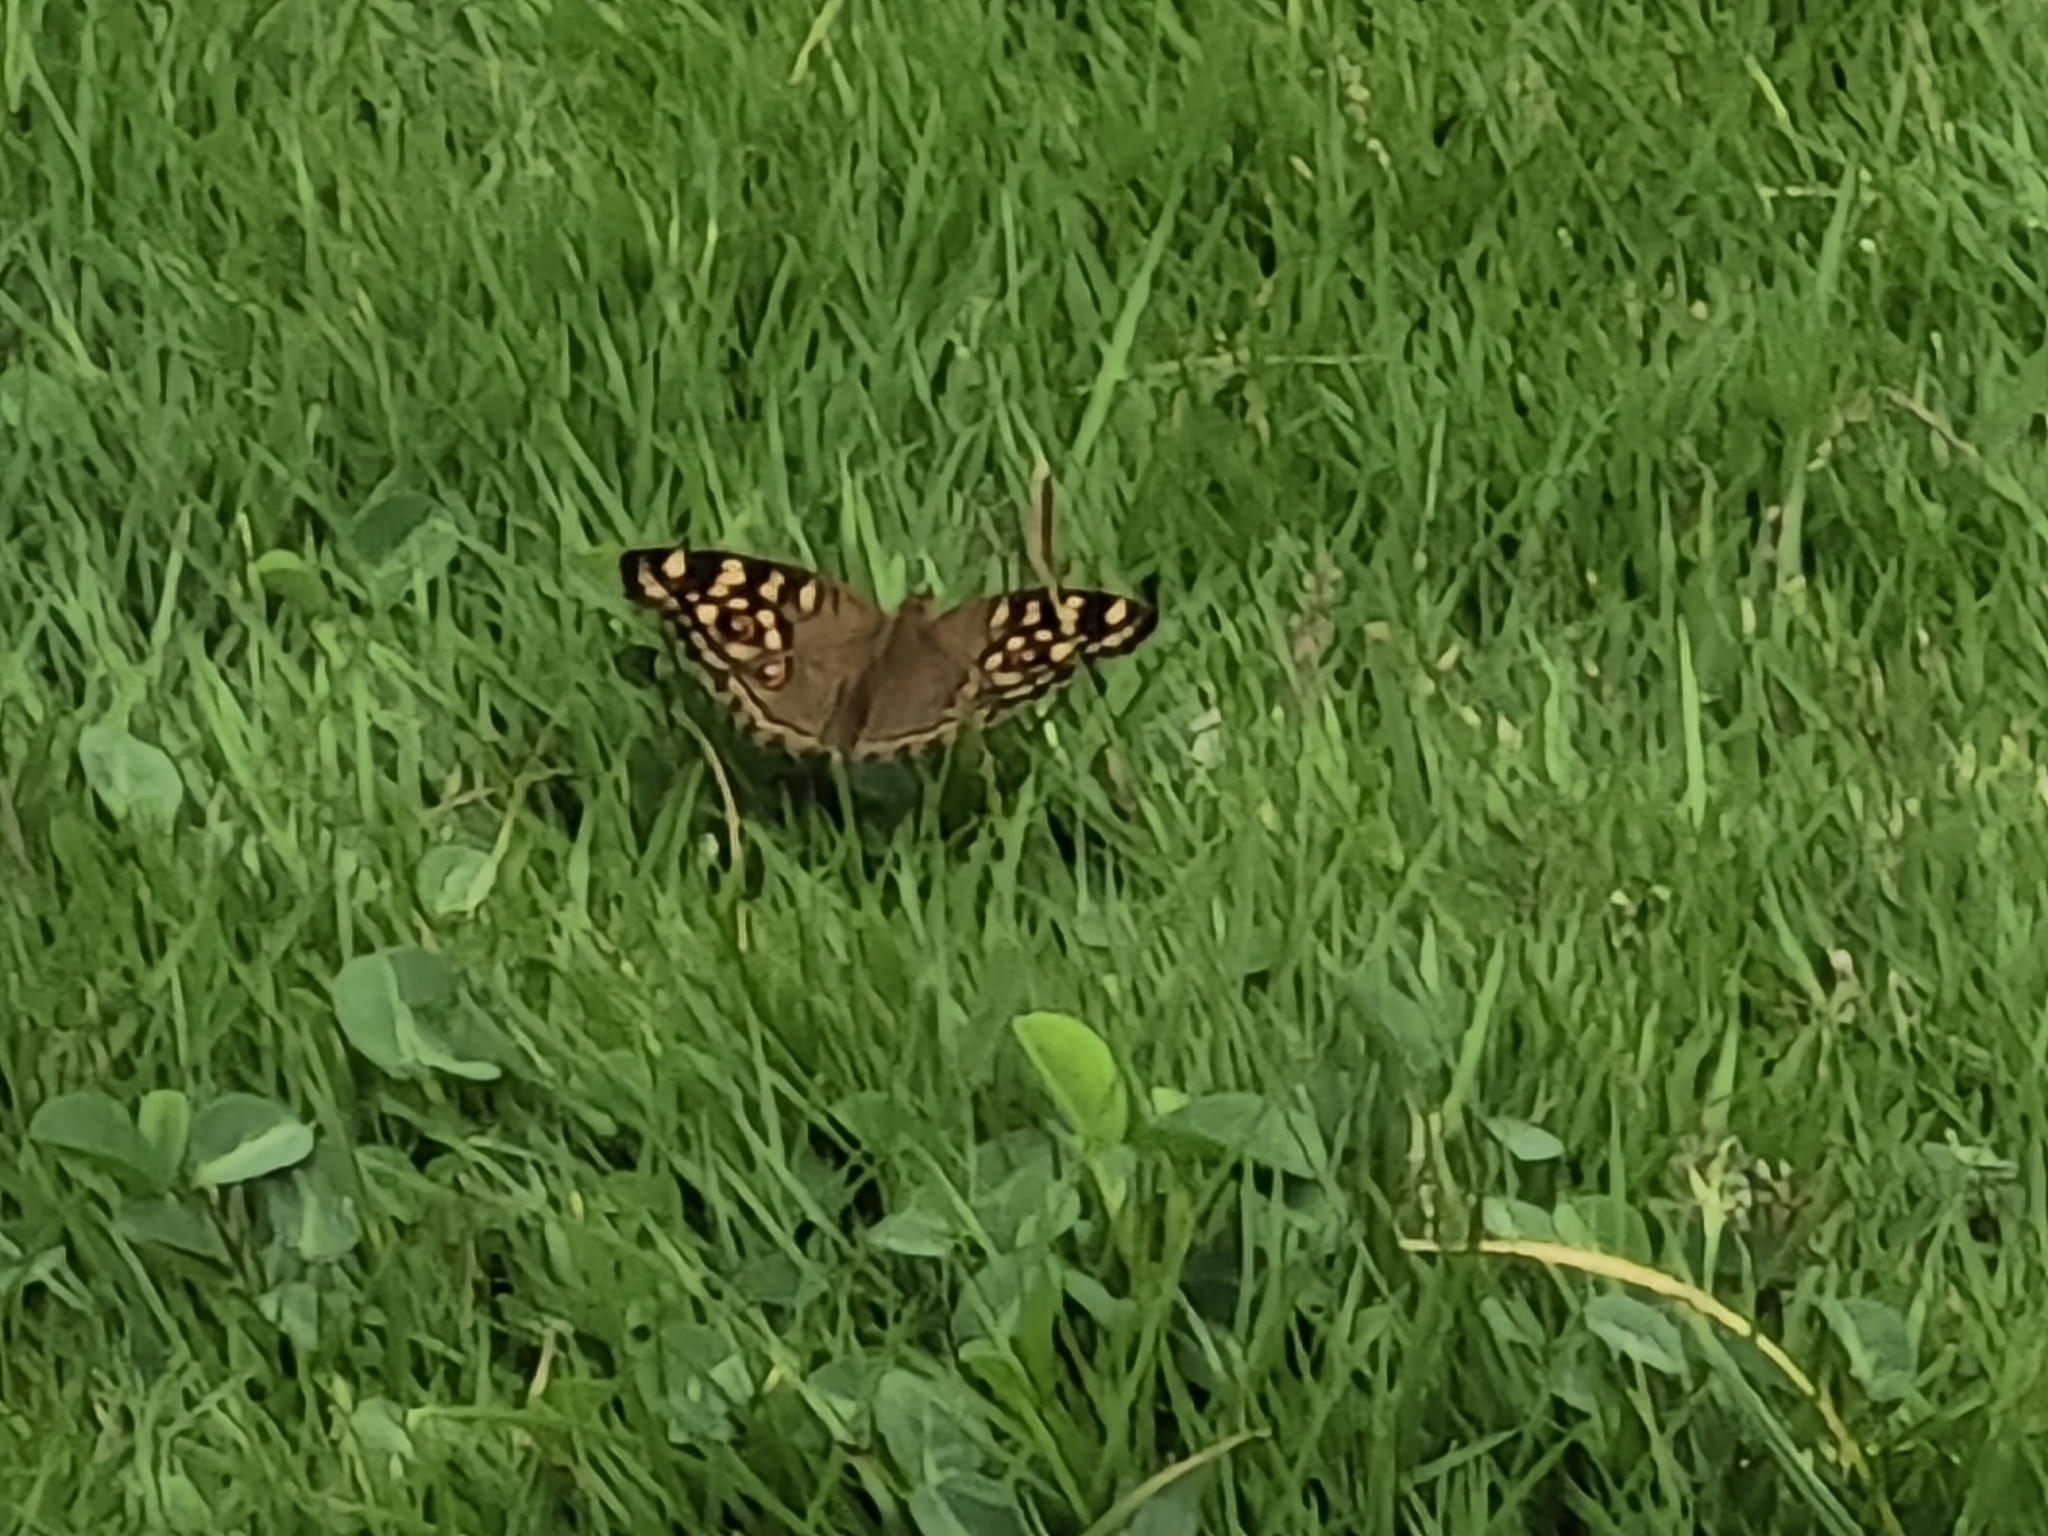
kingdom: Animalia
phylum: Arthropoda
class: Insecta
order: Lepidoptera
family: Nymphalidae
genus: Junonia
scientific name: Junonia lemonias
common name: Lemon pansy
